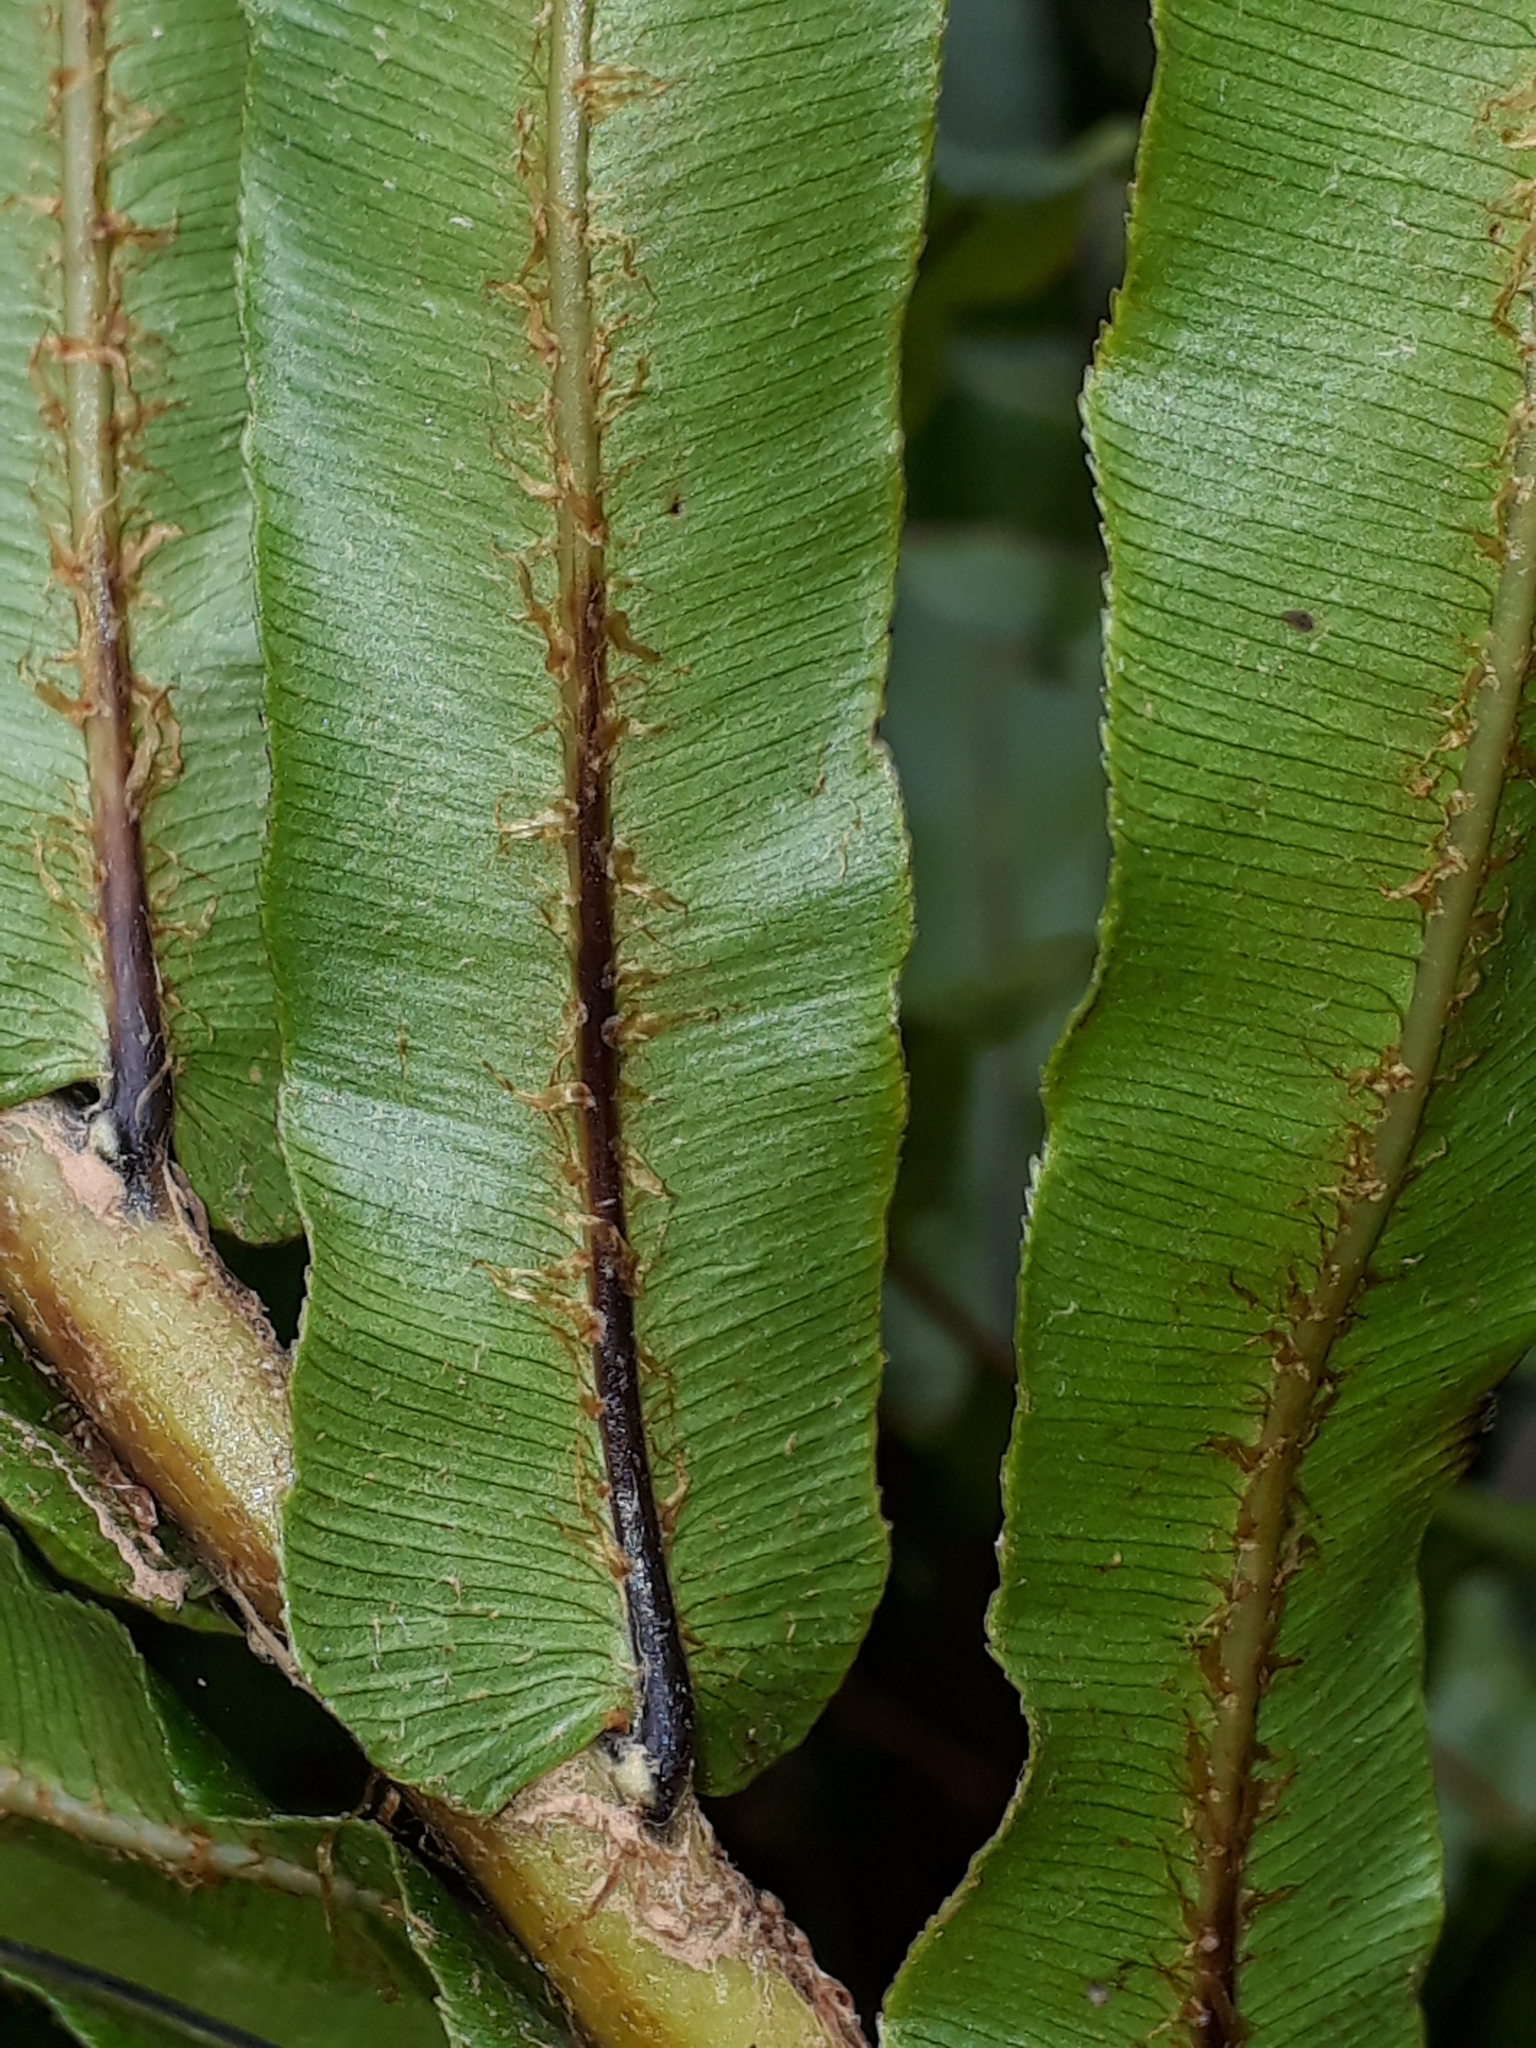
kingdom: Plantae
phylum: Tracheophyta
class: Polypodiopsida
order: Polypodiales
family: Blechnaceae
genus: Parablechnum
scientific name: Parablechnum minus
